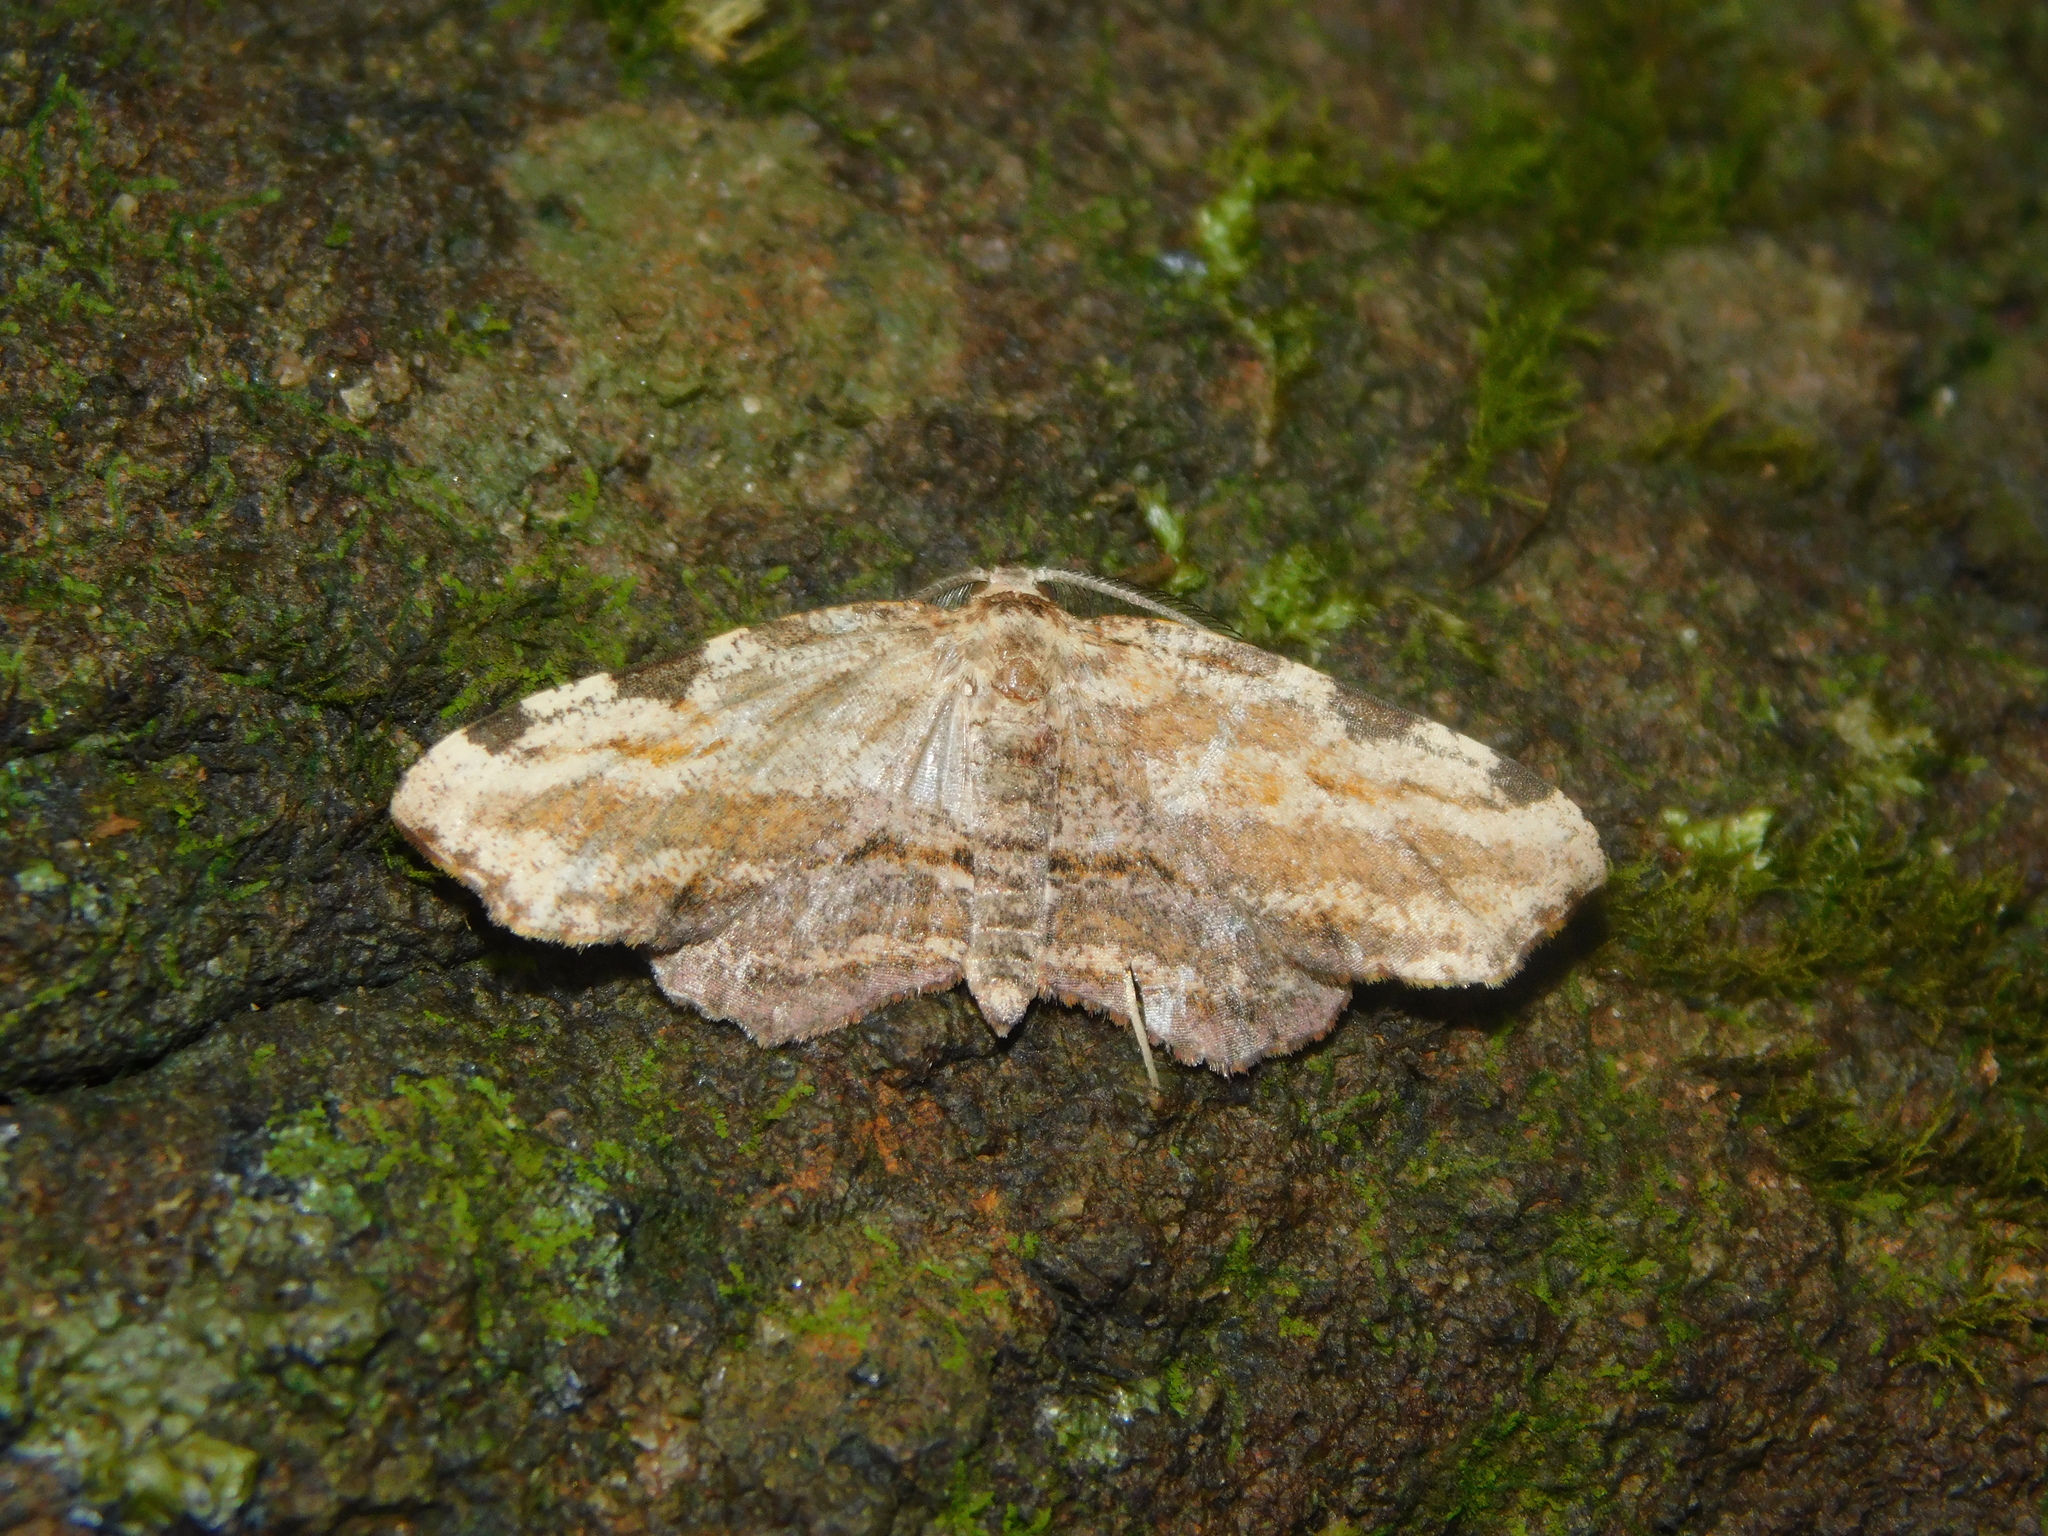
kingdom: Animalia
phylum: Arthropoda
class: Insecta
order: Lepidoptera
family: Geometridae
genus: Achrosis
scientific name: Achrosis intexta
